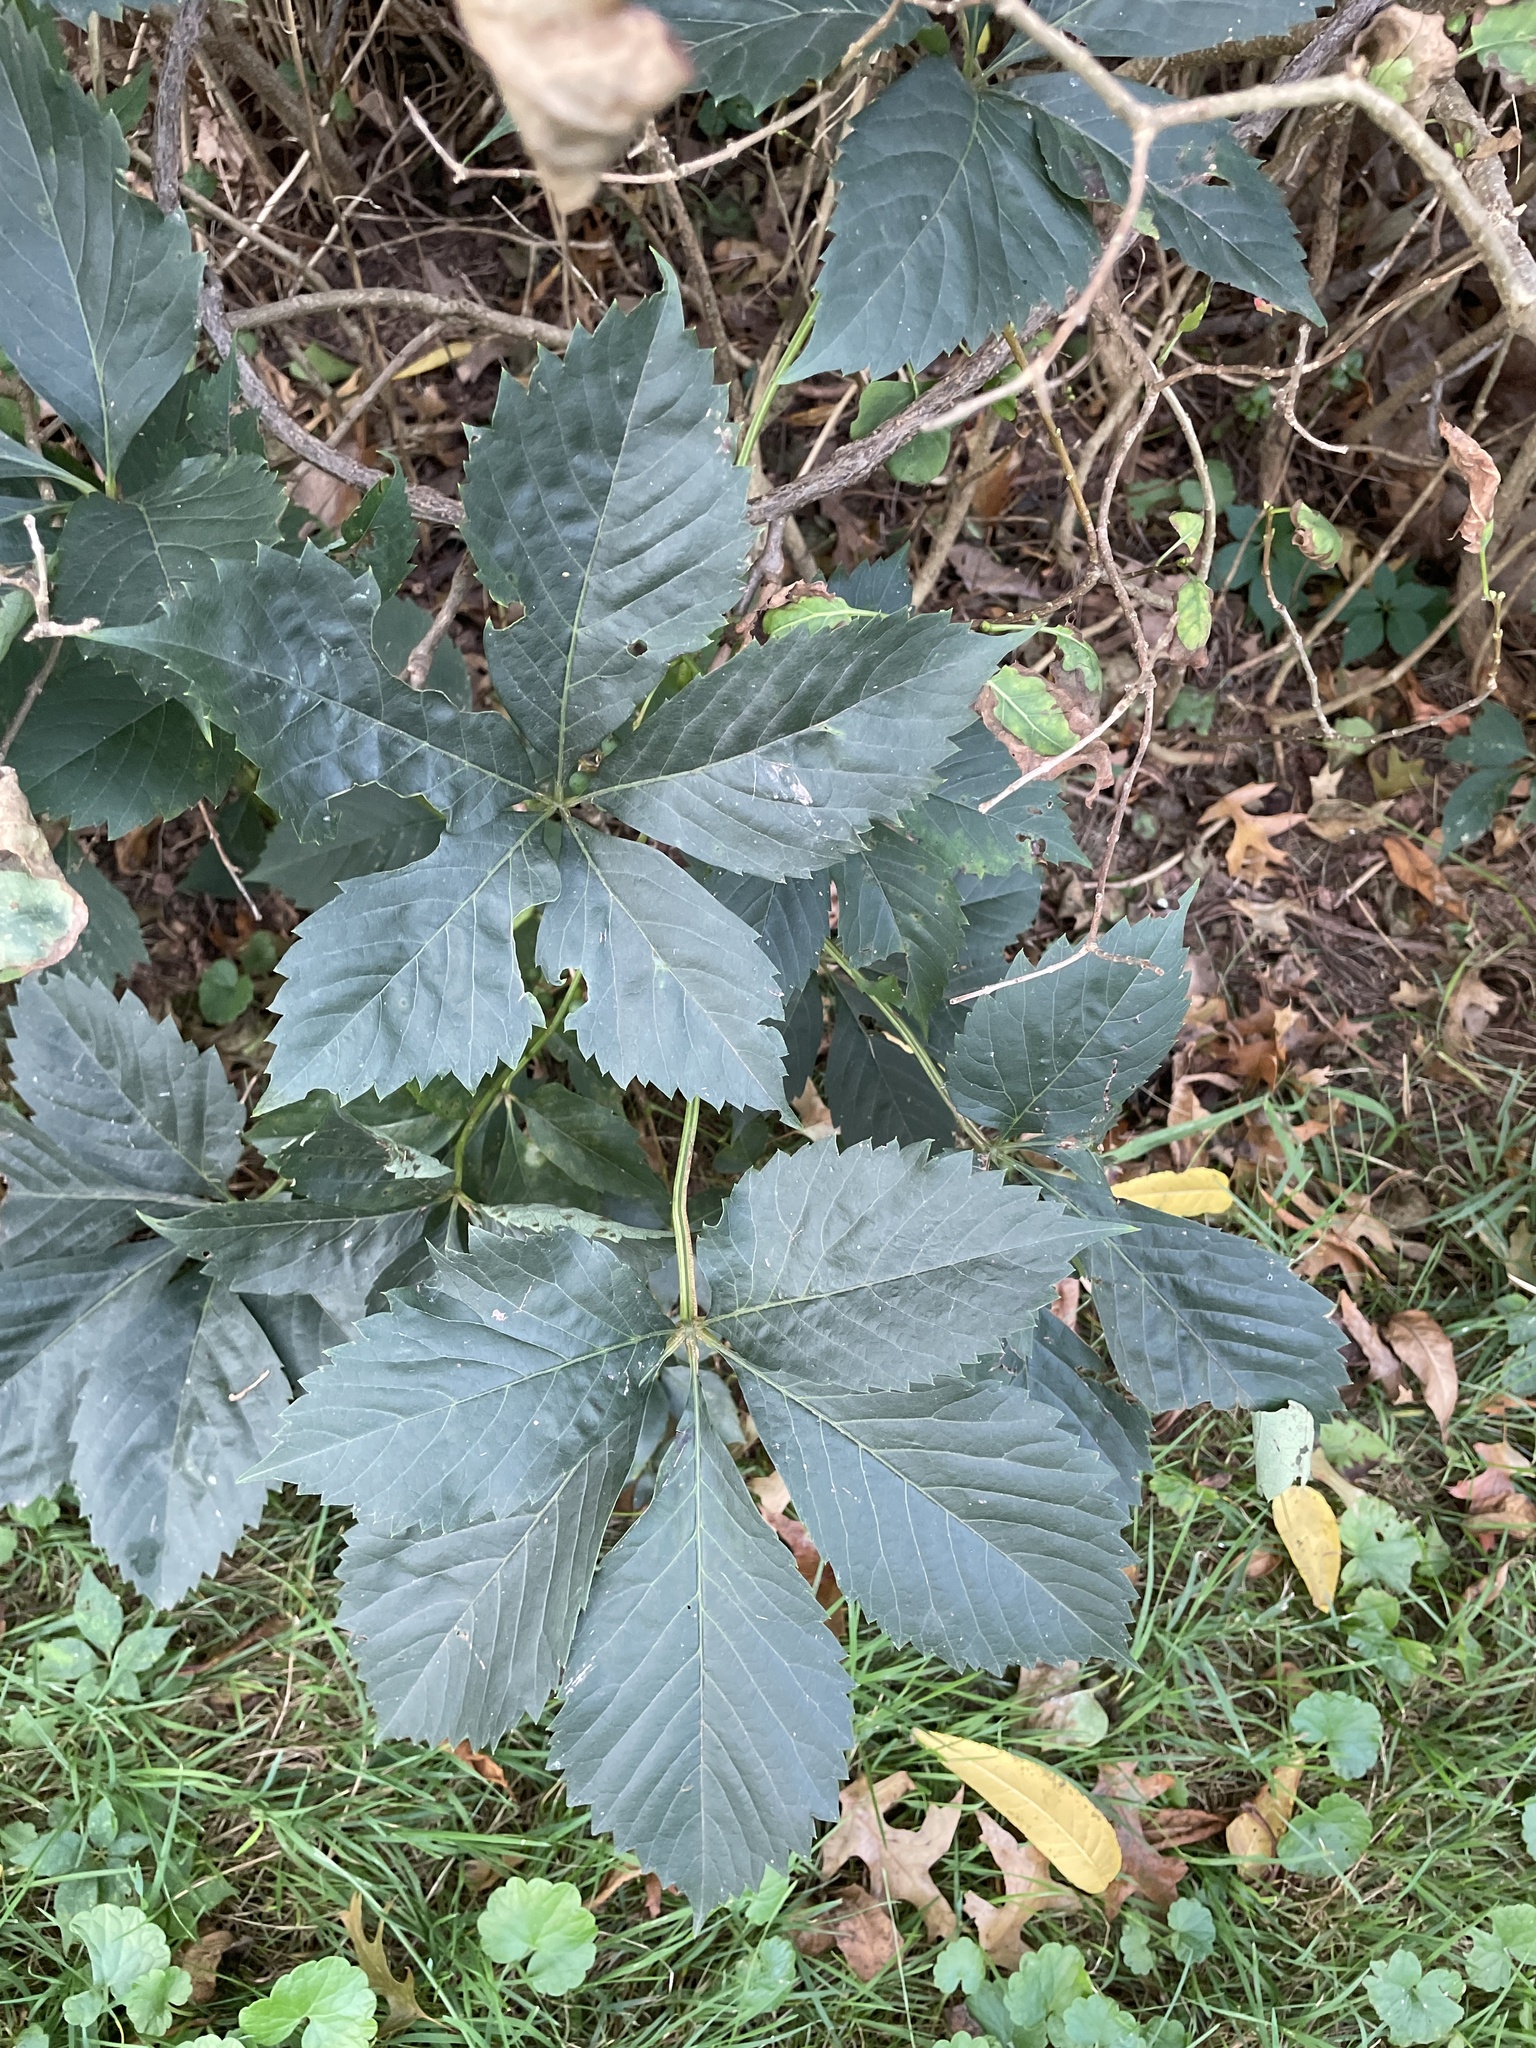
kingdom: Plantae
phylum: Tracheophyta
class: Magnoliopsida
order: Vitales
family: Vitaceae
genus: Parthenocissus
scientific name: Parthenocissus quinquefolia
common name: Virginia-creeper
